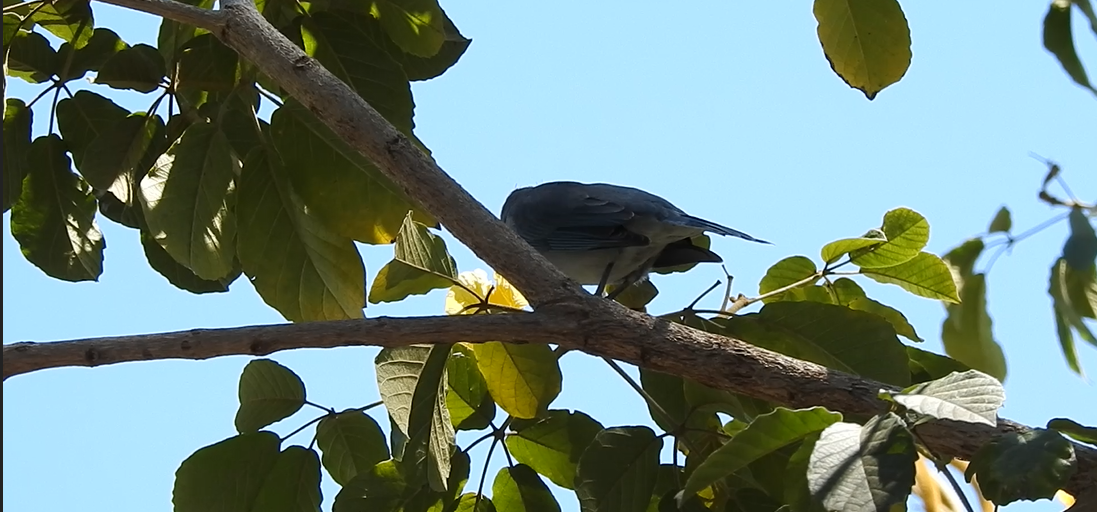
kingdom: Animalia
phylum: Chordata
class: Aves
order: Passeriformes
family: Thraupidae
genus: Thraupis
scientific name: Thraupis sayaca
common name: Sayaca tanager
